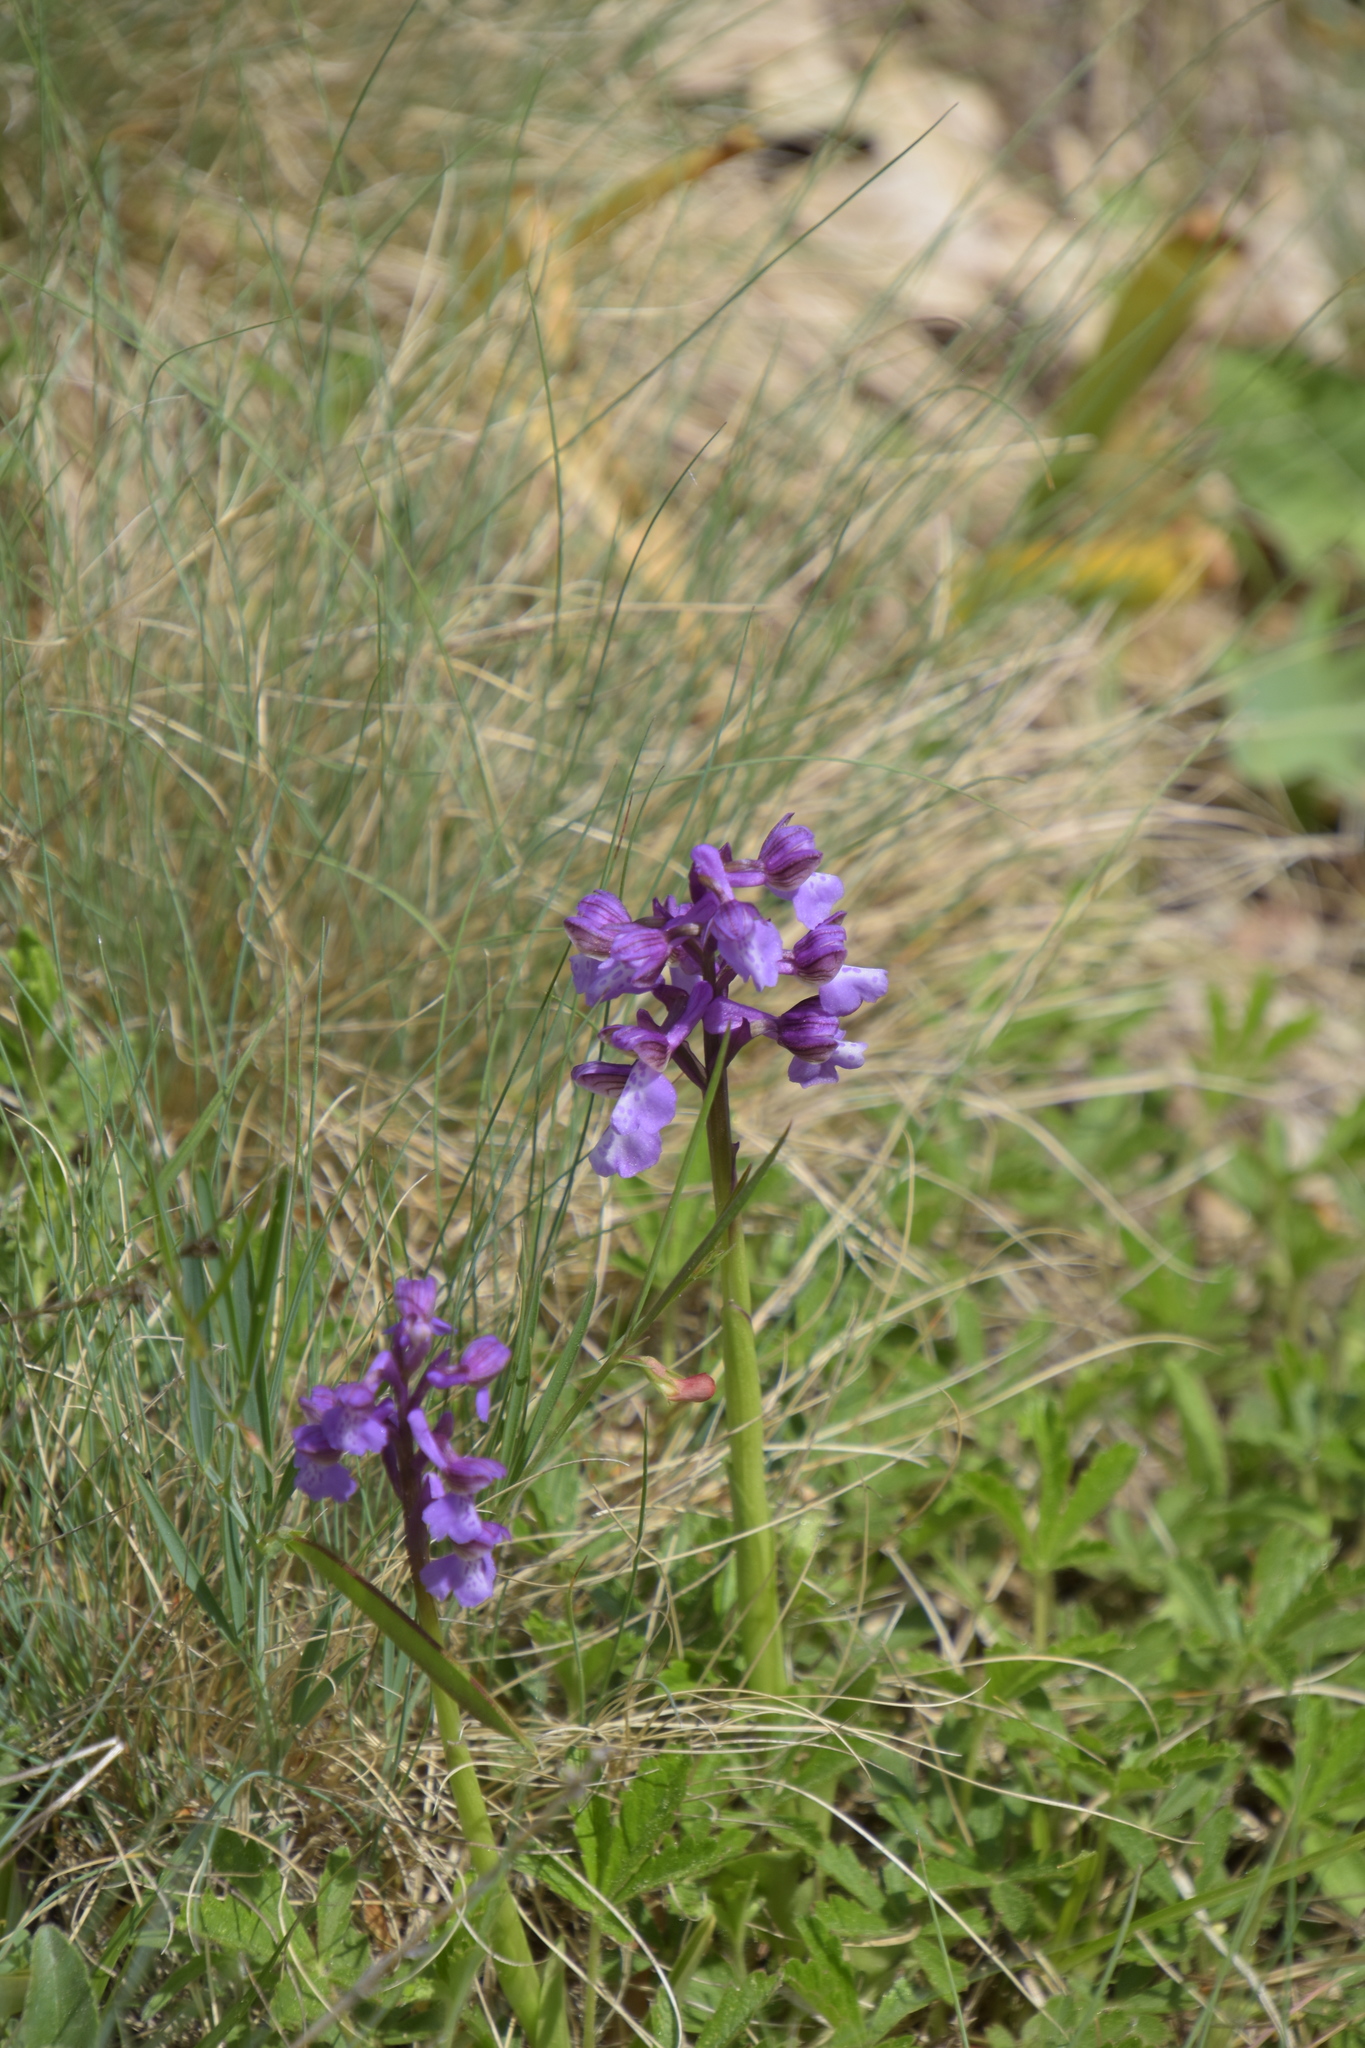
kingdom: Plantae
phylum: Tracheophyta
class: Liliopsida
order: Asparagales
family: Orchidaceae
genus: Anacamptis
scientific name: Anacamptis morio
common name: Green-winged orchid
